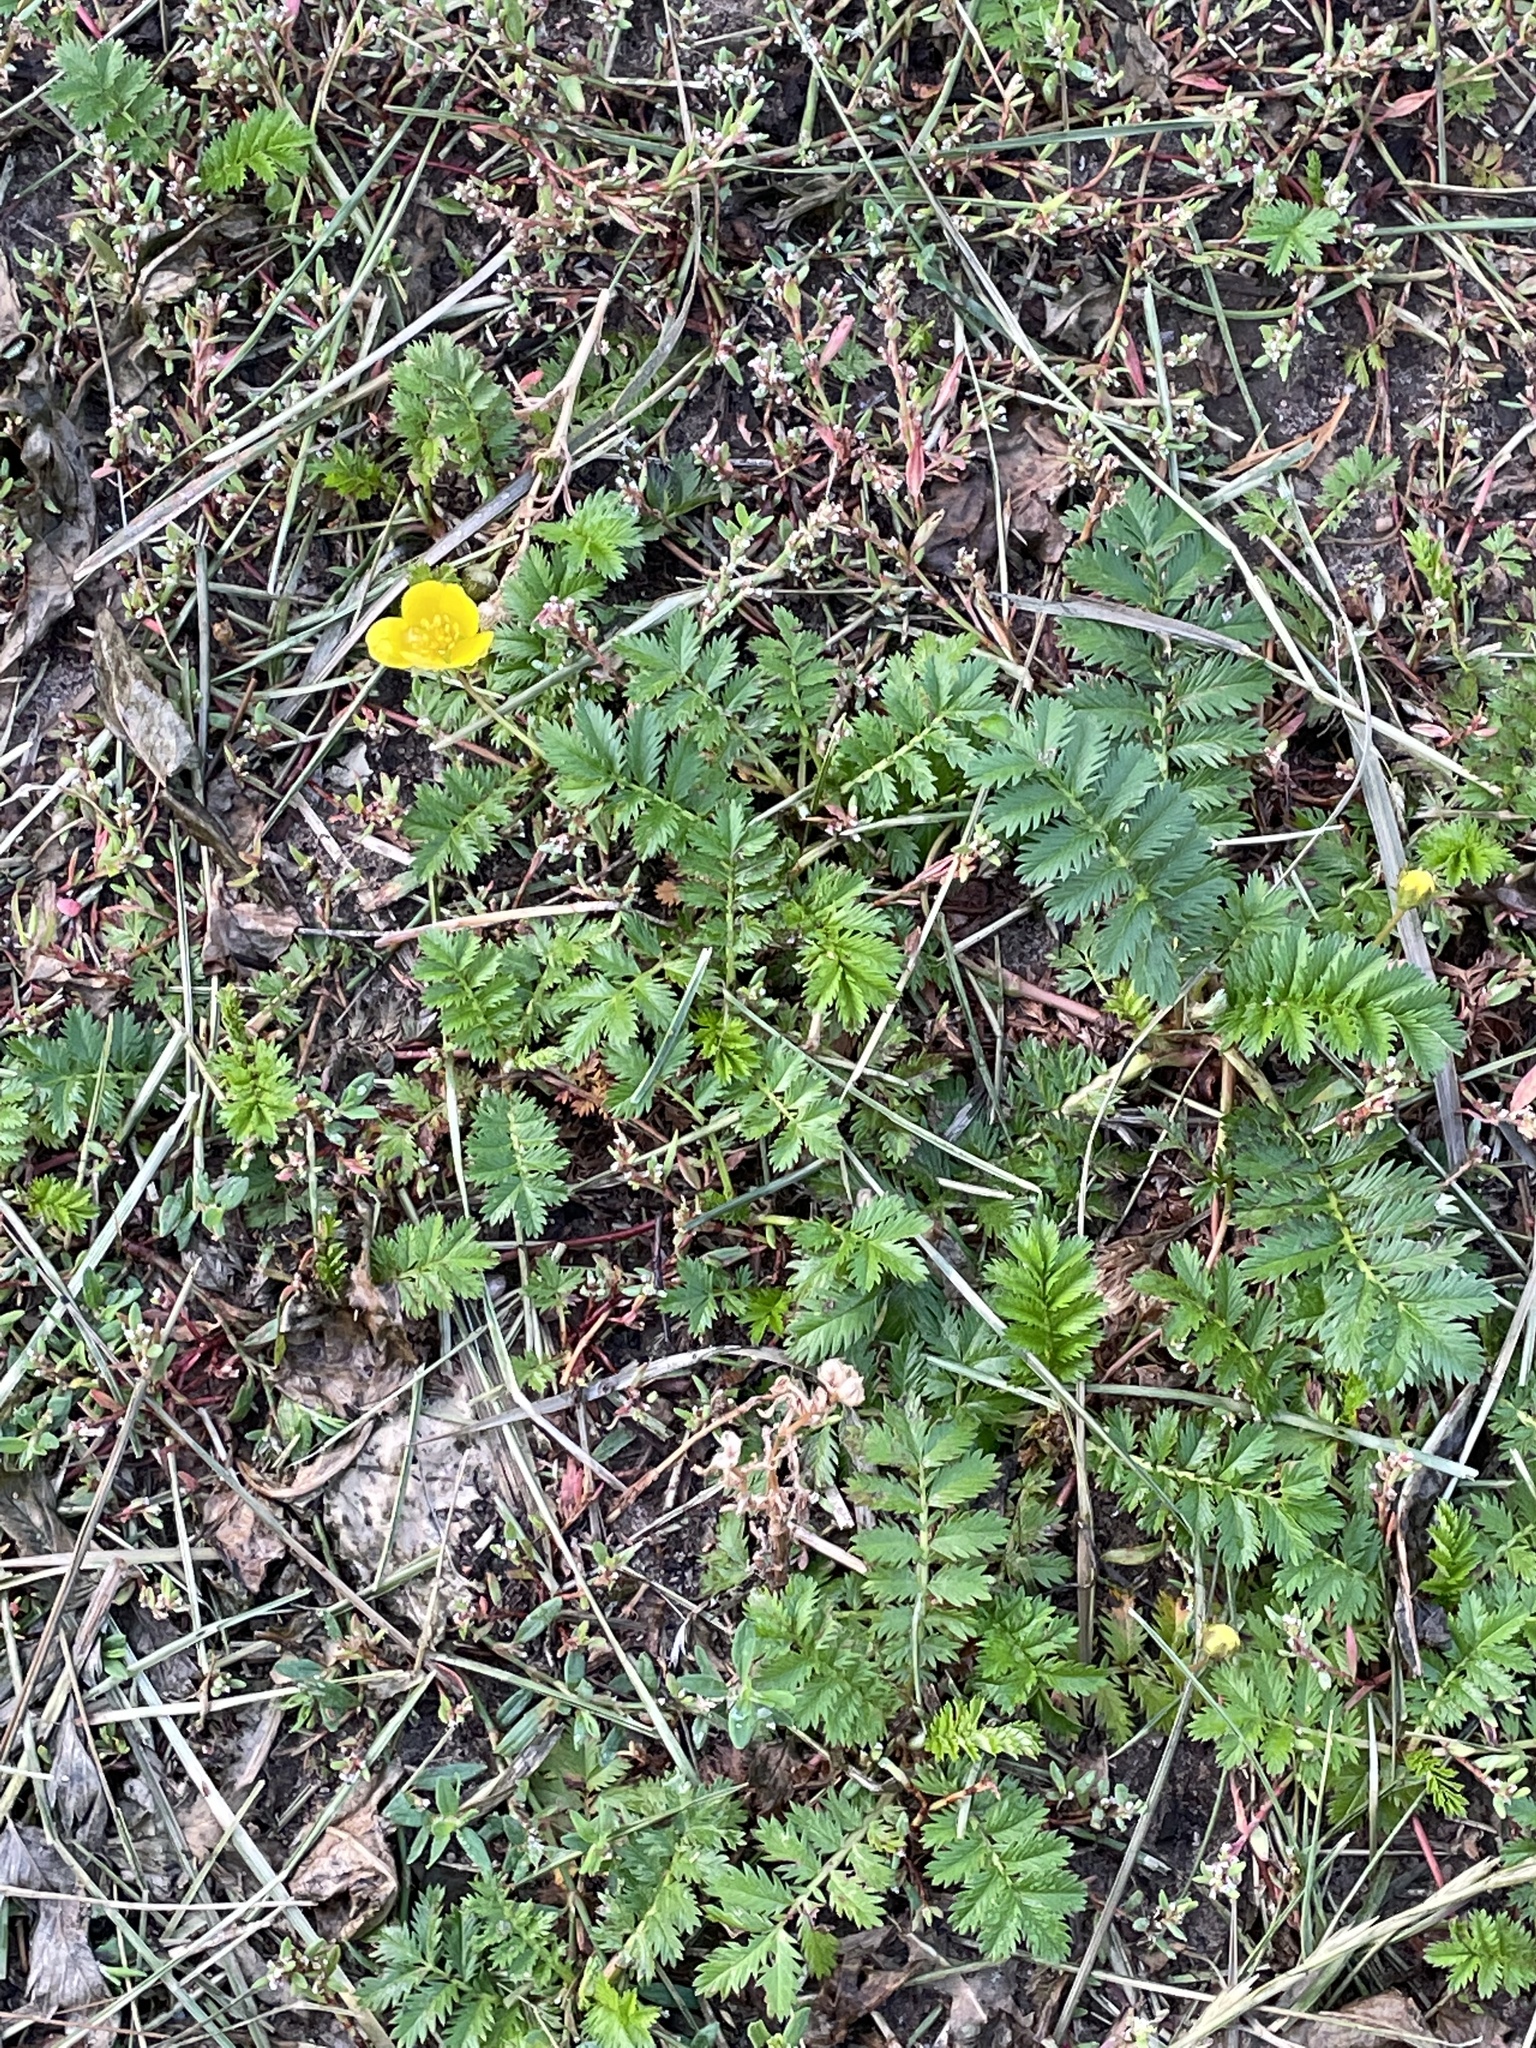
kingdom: Plantae
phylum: Tracheophyta
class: Magnoliopsida
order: Rosales
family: Rosaceae
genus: Argentina
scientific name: Argentina anserina
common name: Common silverweed
